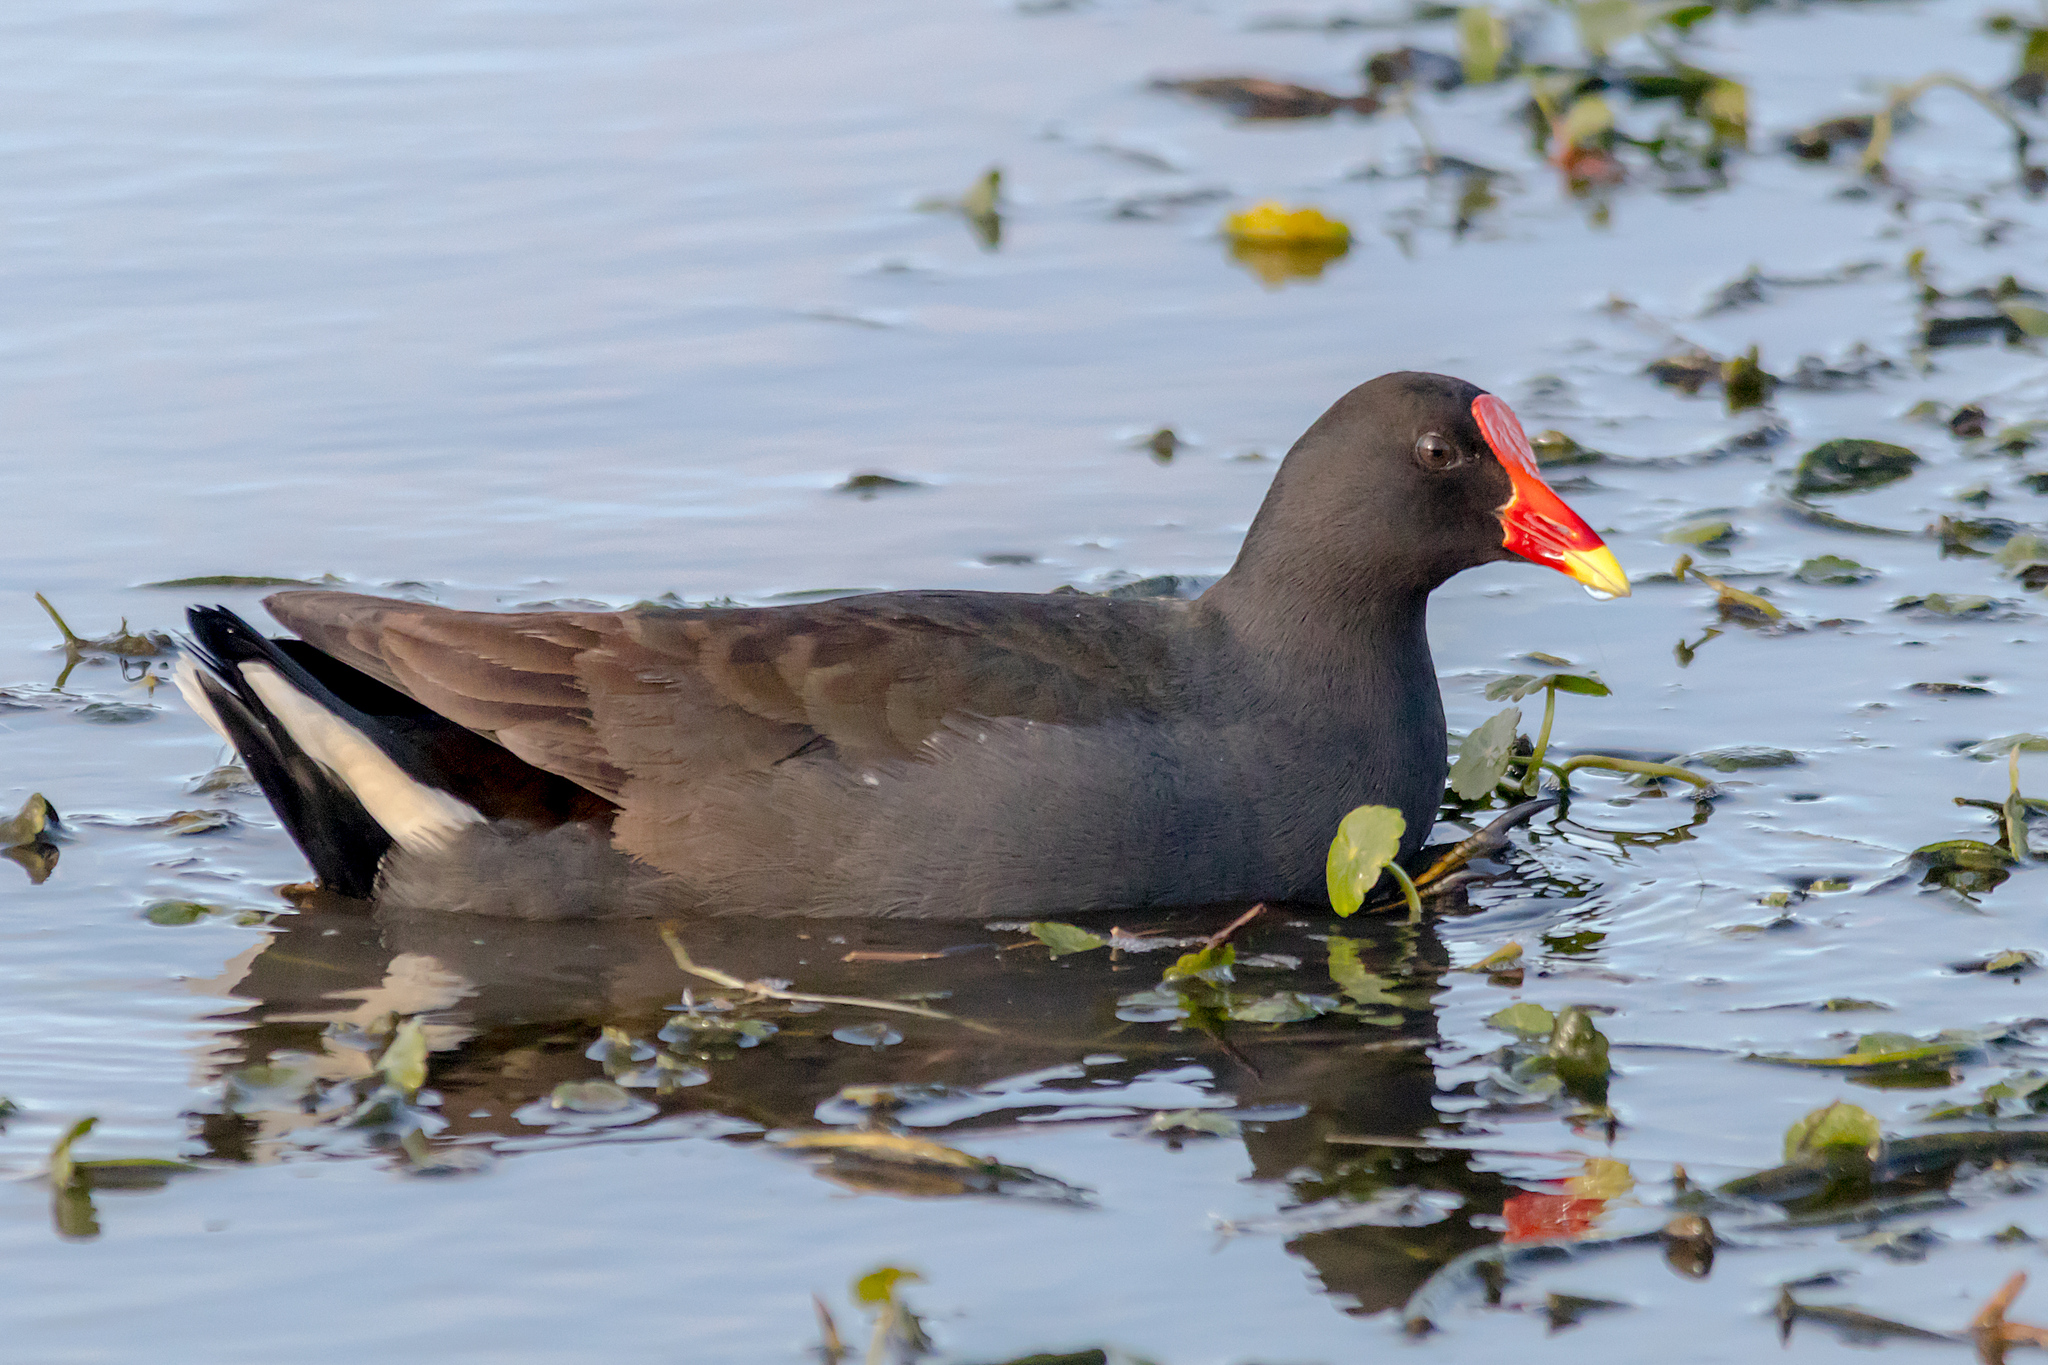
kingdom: Animalia
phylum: Chordata
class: Aves
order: Gruiformes
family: Rallidae
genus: Gallinula
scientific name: Gallinula tenebrosa
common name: Dusky moorhen
